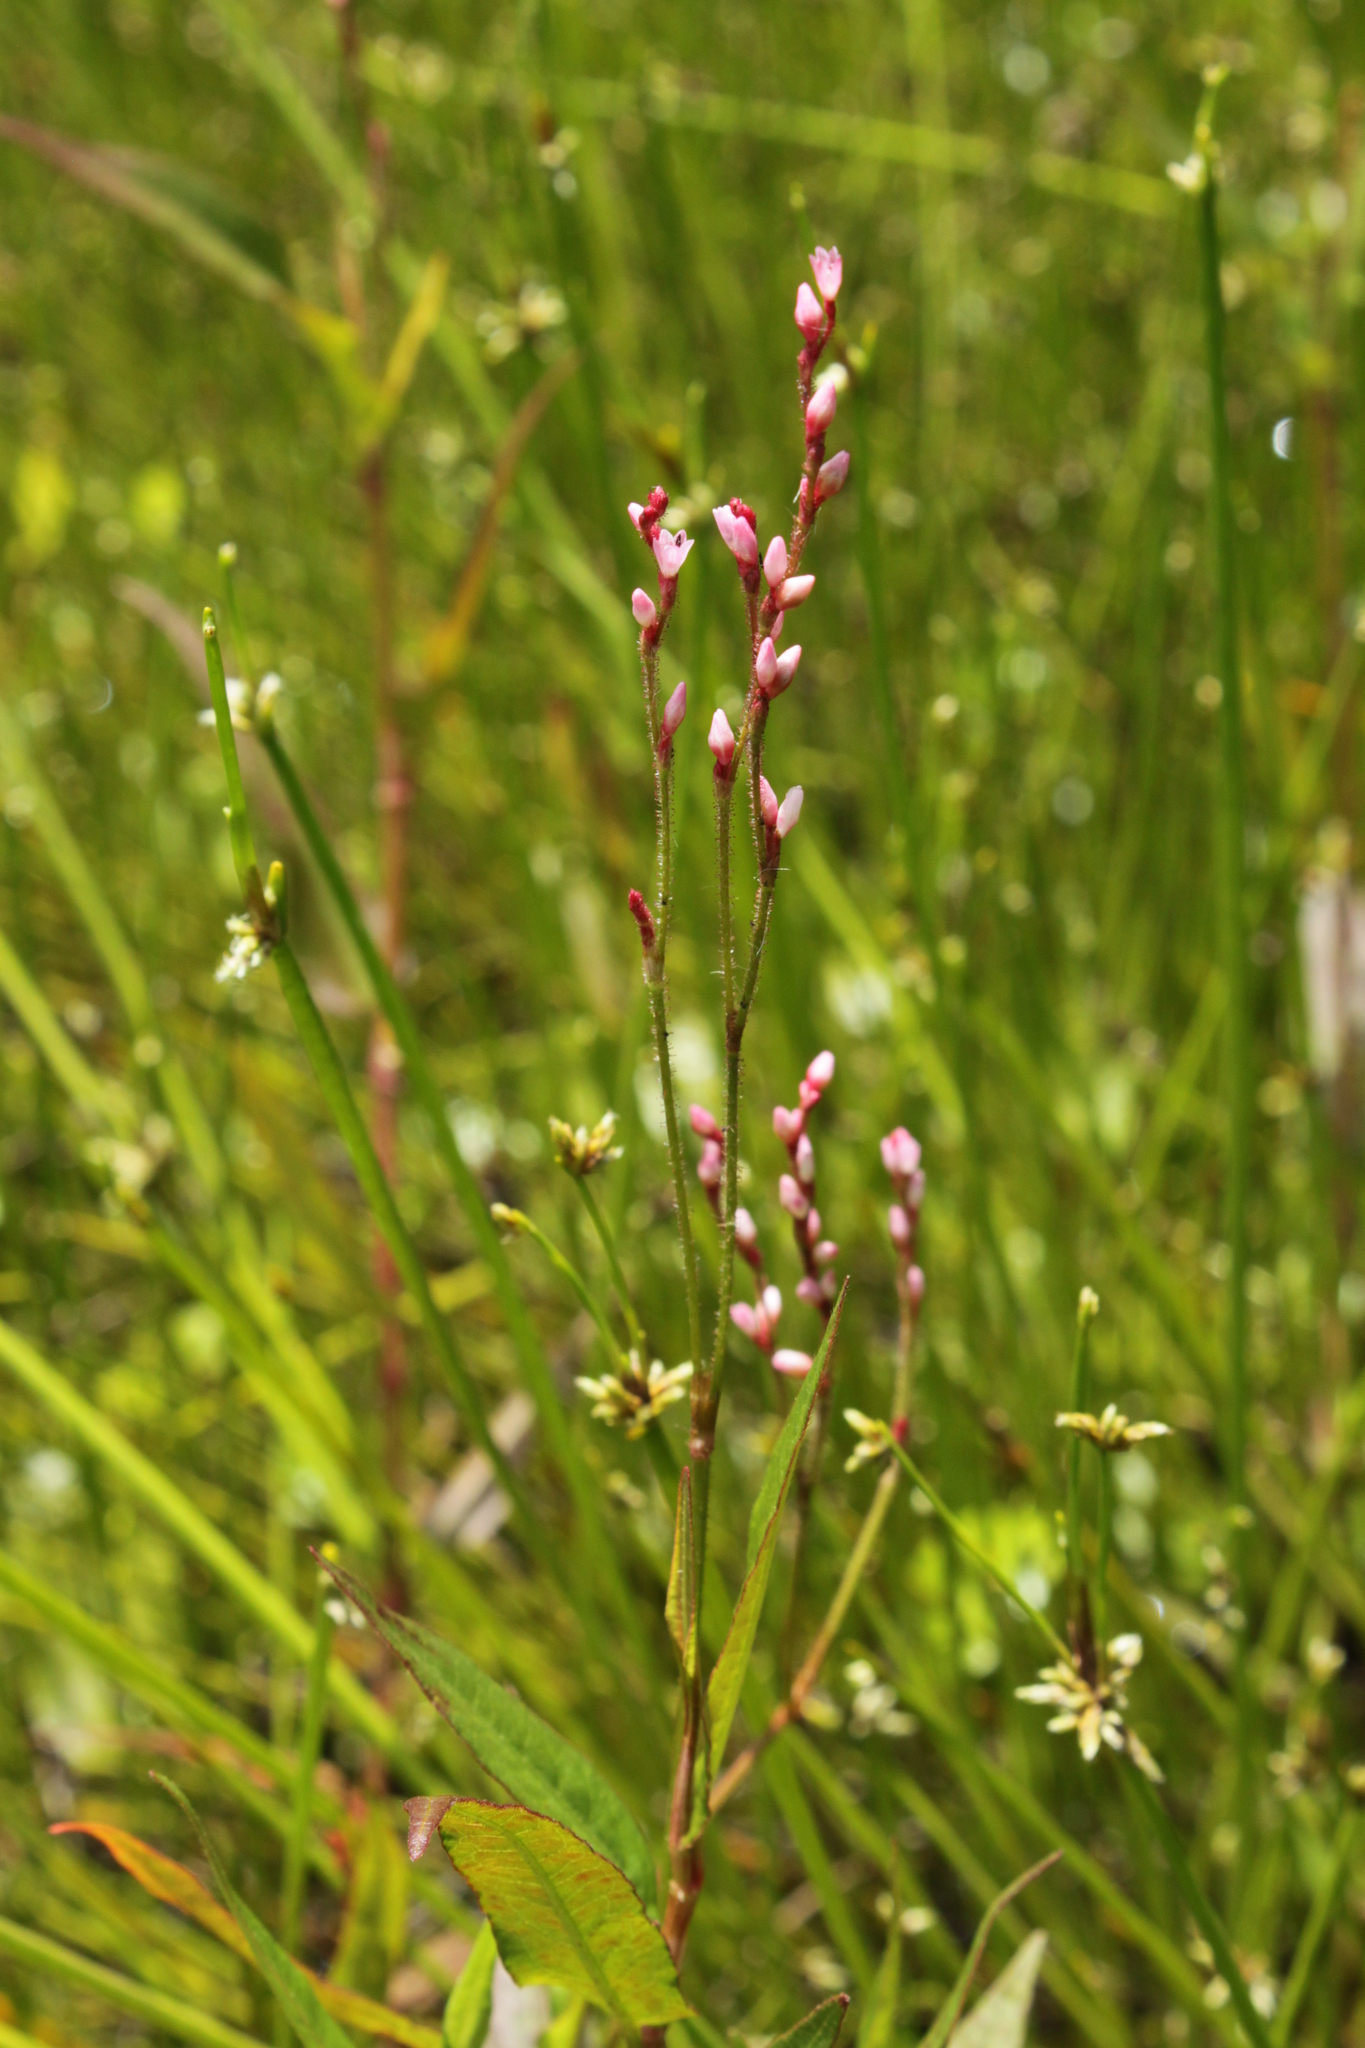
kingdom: Plantae
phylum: Tracheophyta
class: Magnoliopsida
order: Caryophyllales
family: Polygonaceae
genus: Persicaria
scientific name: Persicaria meisneriana
